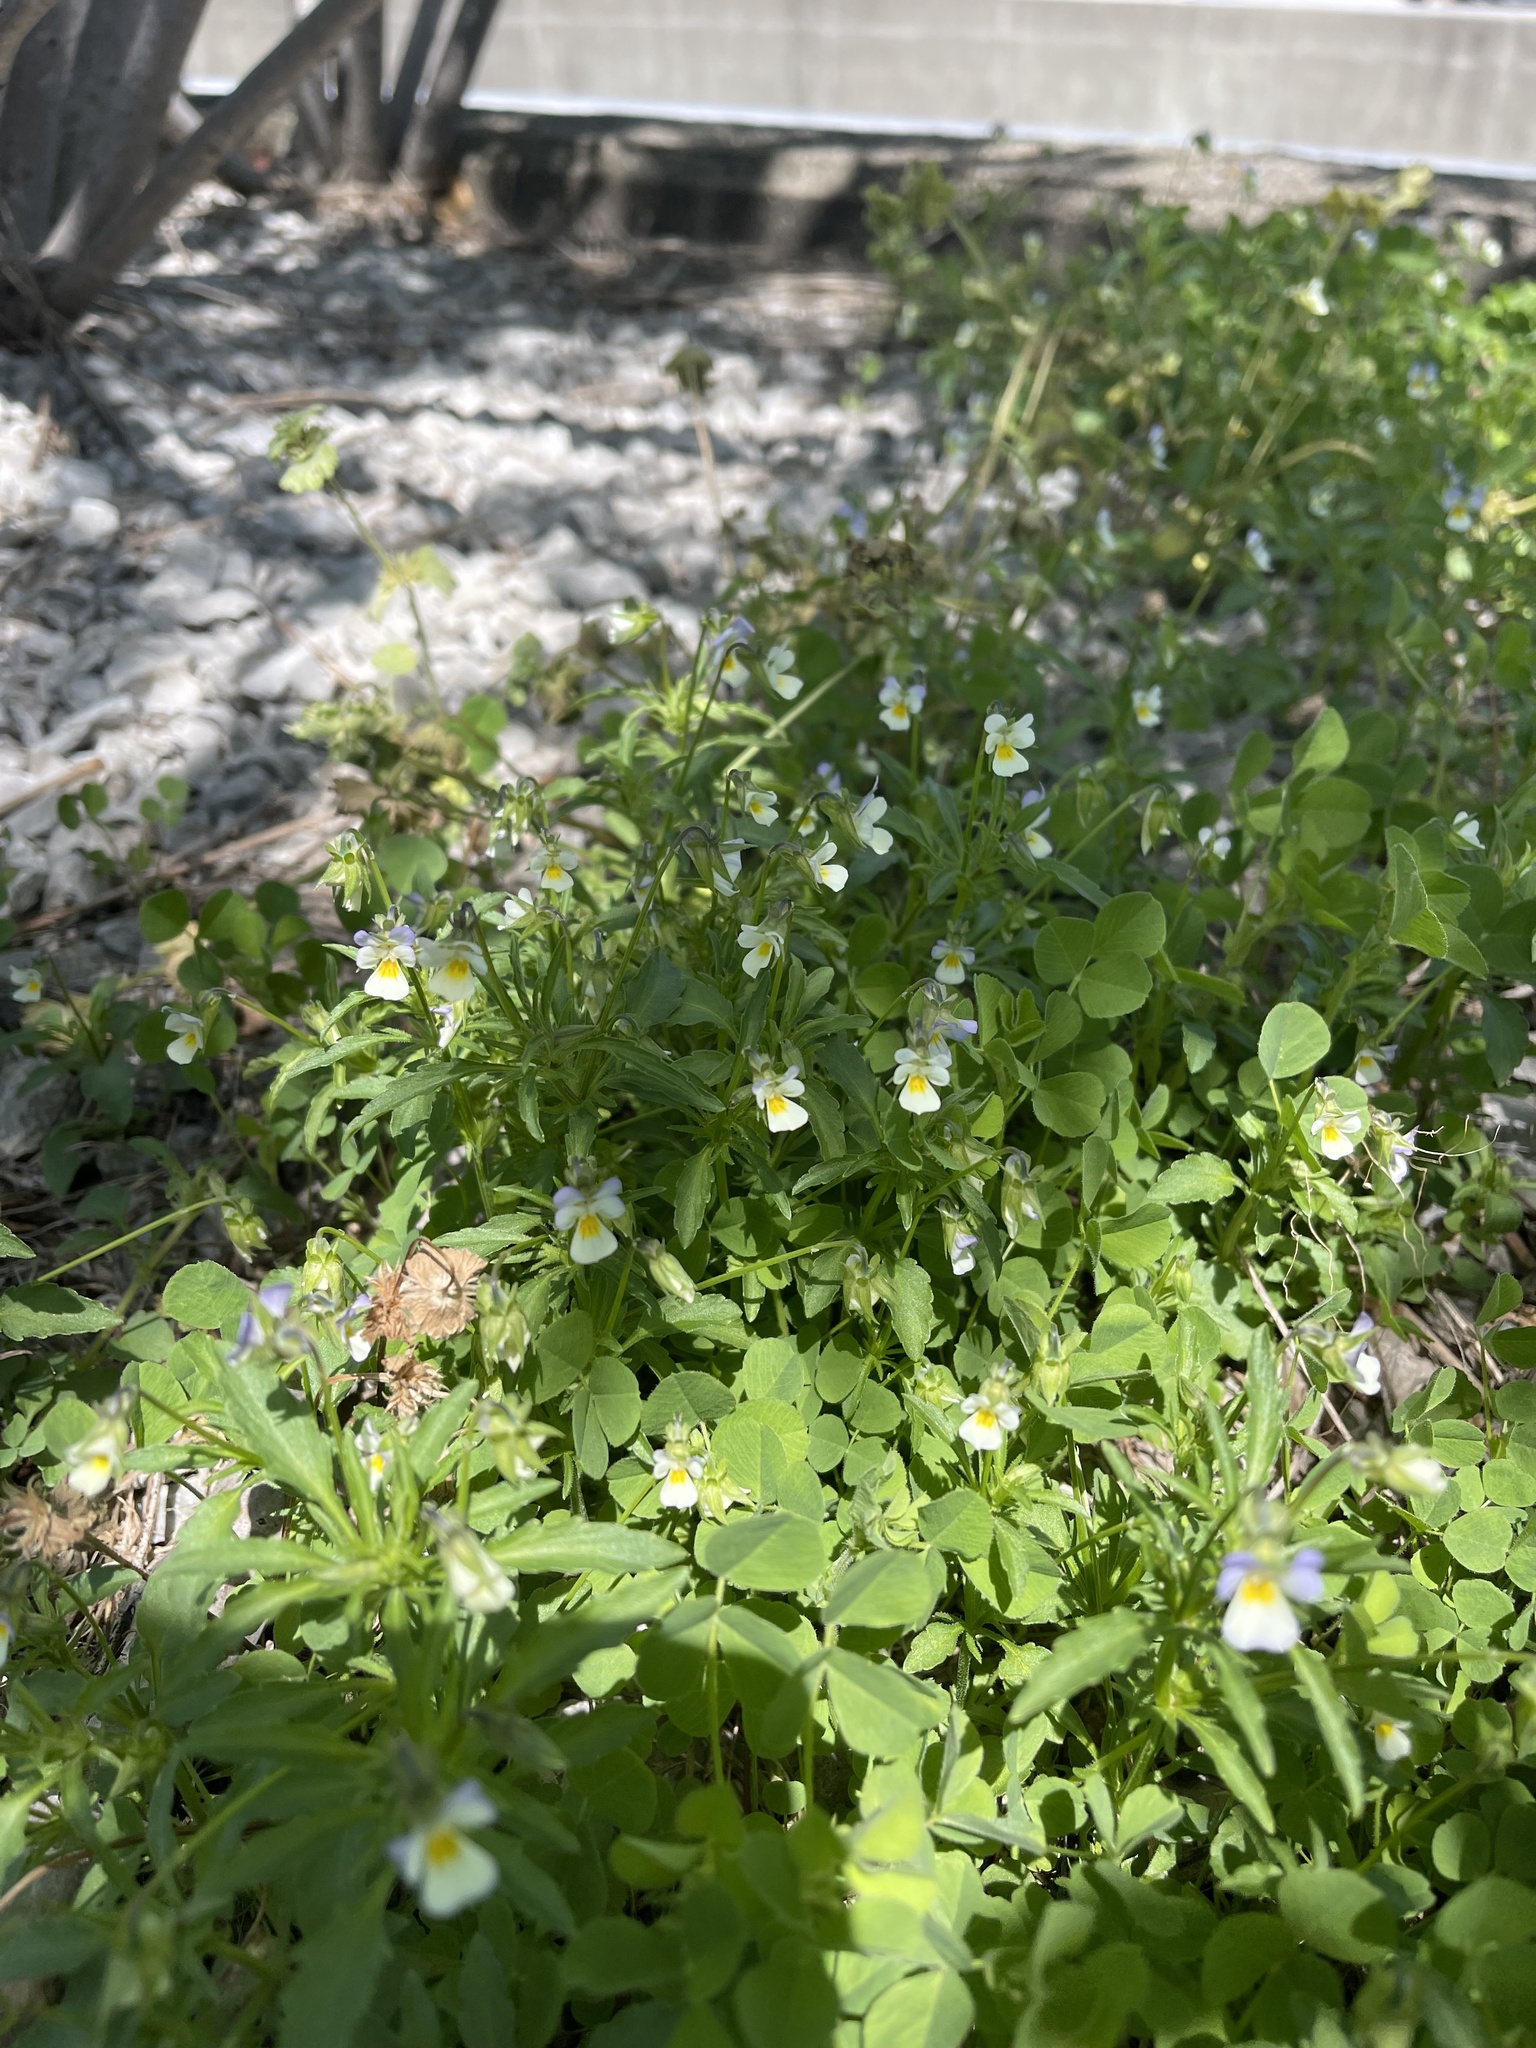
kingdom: Plantae
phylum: Tracheophyta
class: Magnoliopsida
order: Malpighiales
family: Violaceae
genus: Viola
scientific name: Viola arvensis
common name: Field pansy
